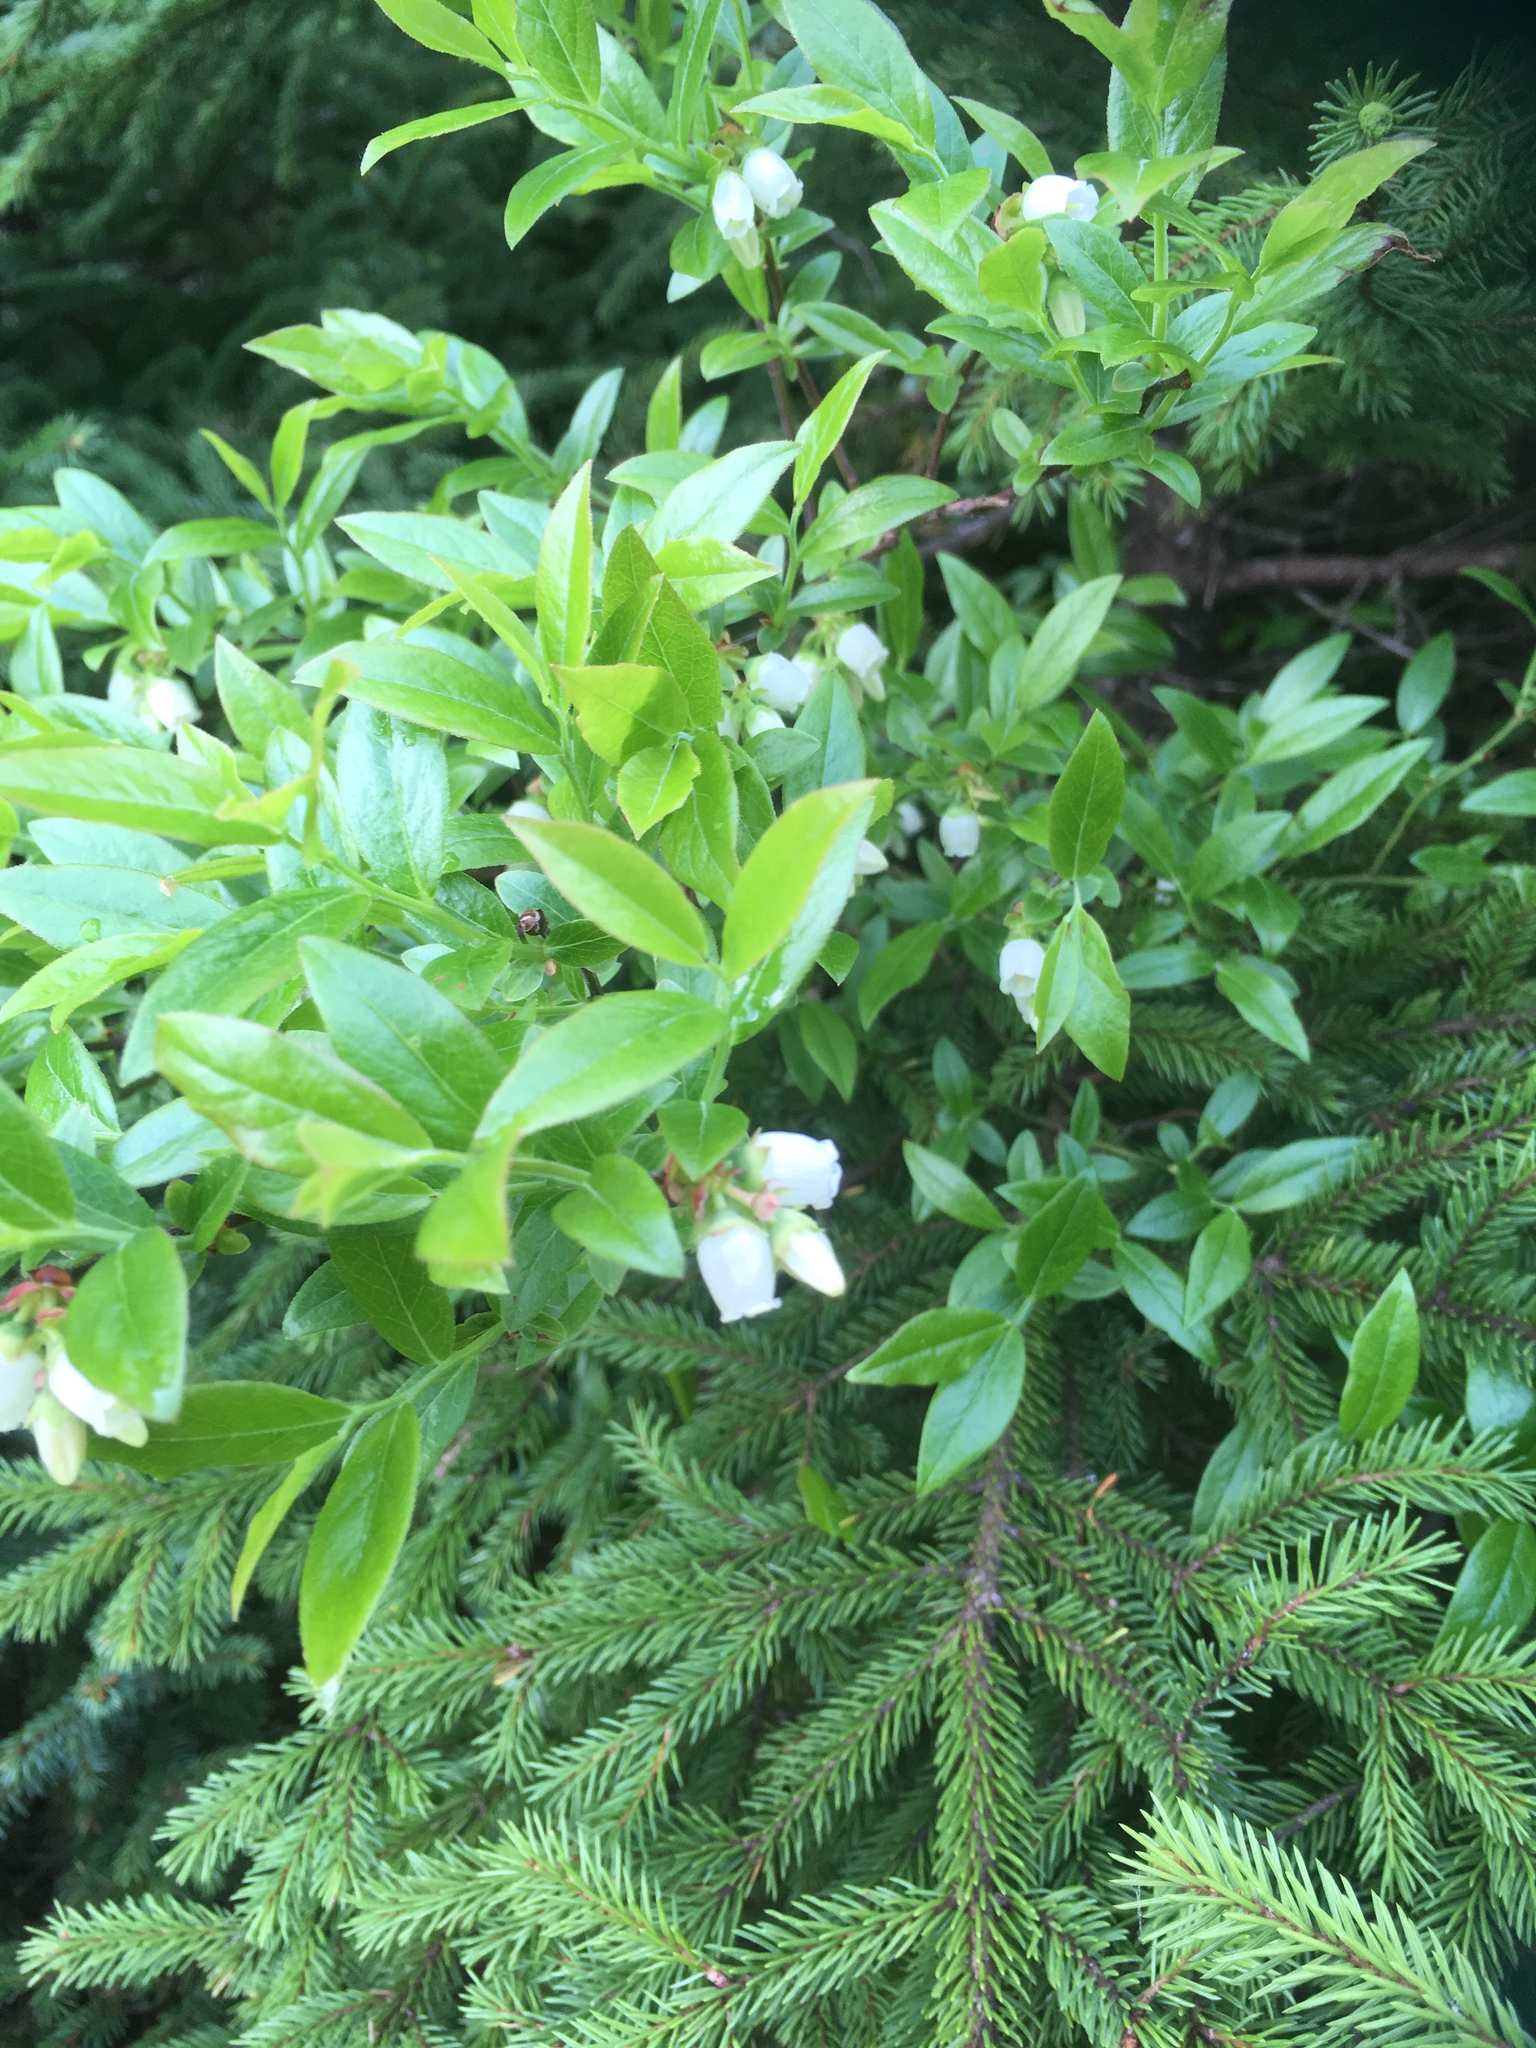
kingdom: Plantae
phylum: Tracheophyta
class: Magnoliopsida
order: Ericales
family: Ericaceae
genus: Vaccinium
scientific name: Vaccinium angustifolium
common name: Early lowbush blueberry
